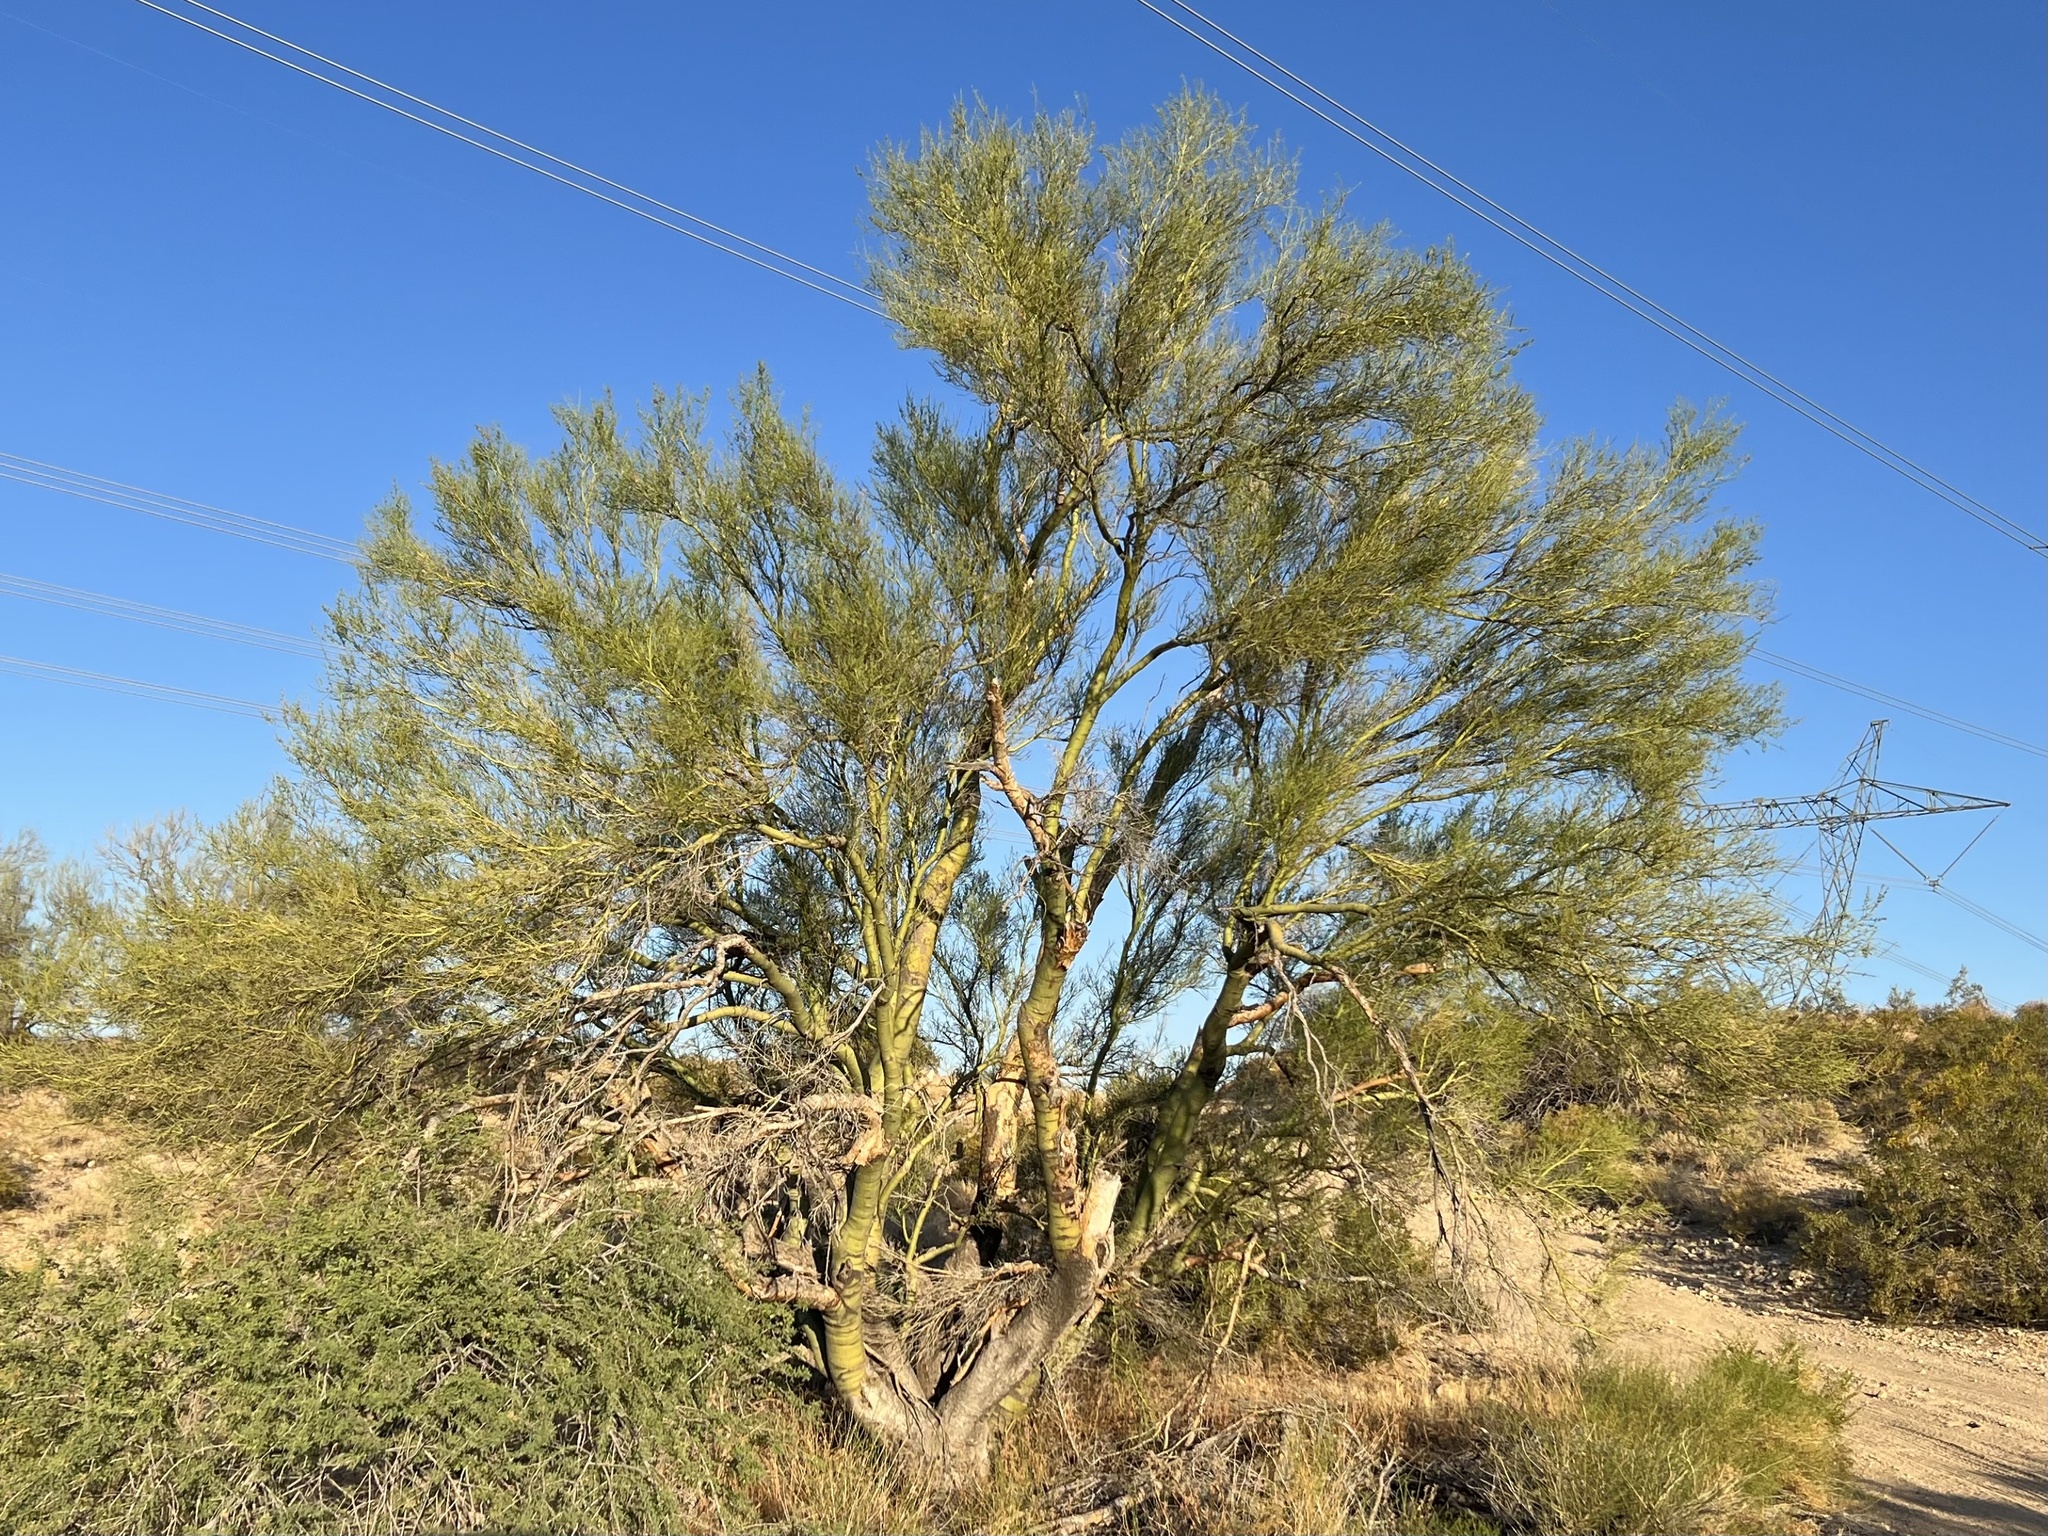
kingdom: Plantae
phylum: Tracheophyta
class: Magnoliopsida
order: Fabales
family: Fabaceae
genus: Parkinsonia
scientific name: Parkinsonia microphylla
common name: Yellow paloverde
